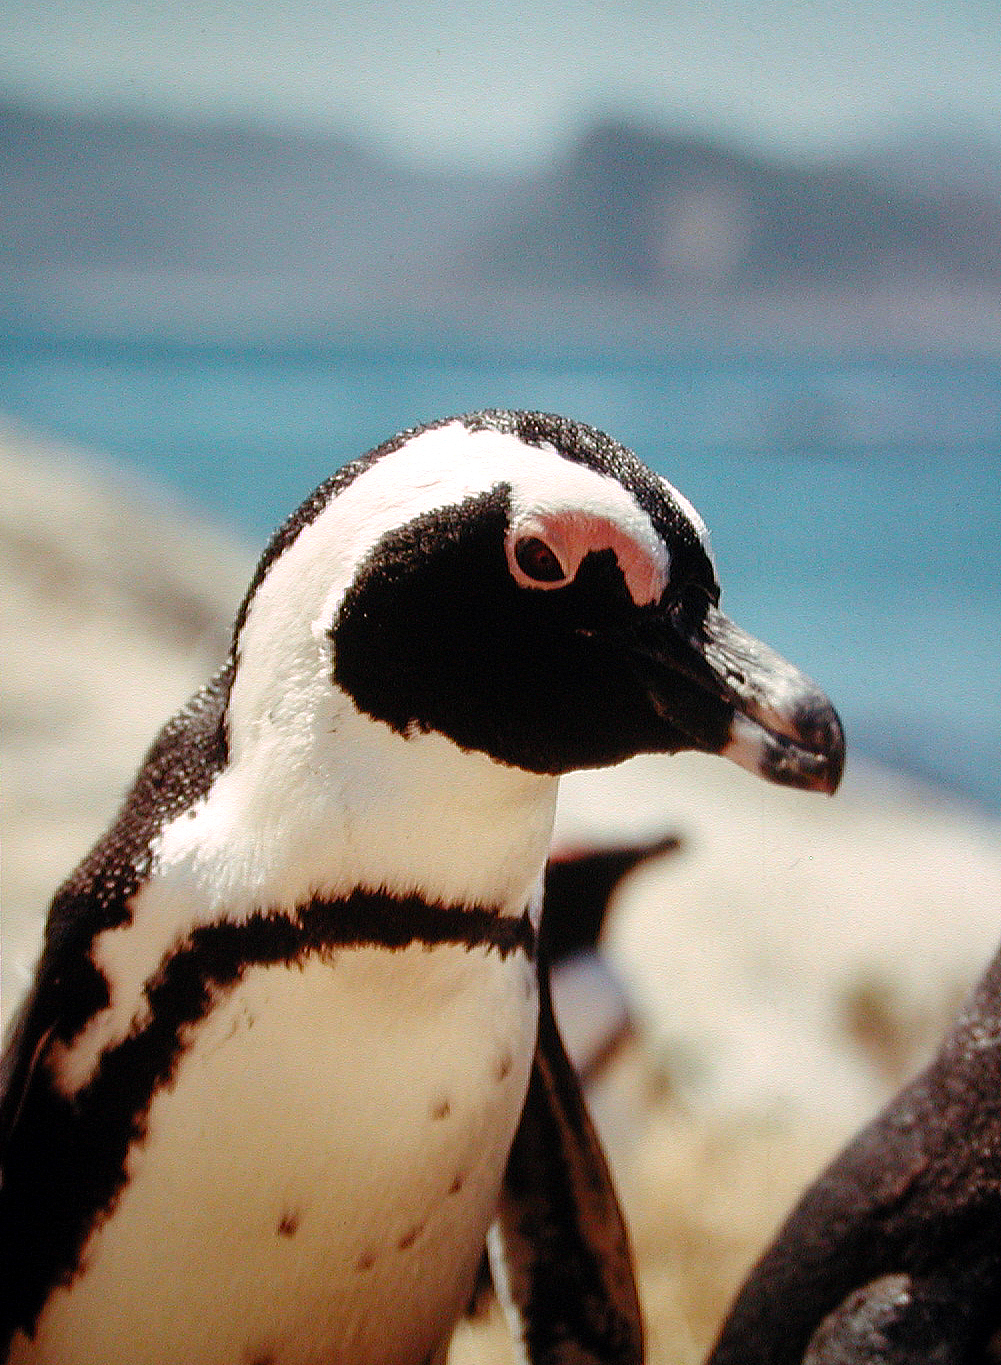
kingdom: Animalia
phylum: Chordata
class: Aves
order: Sphenisciformes
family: Spheniscidae
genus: Spheniscus
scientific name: Spheniscus demersus
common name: African penguin
